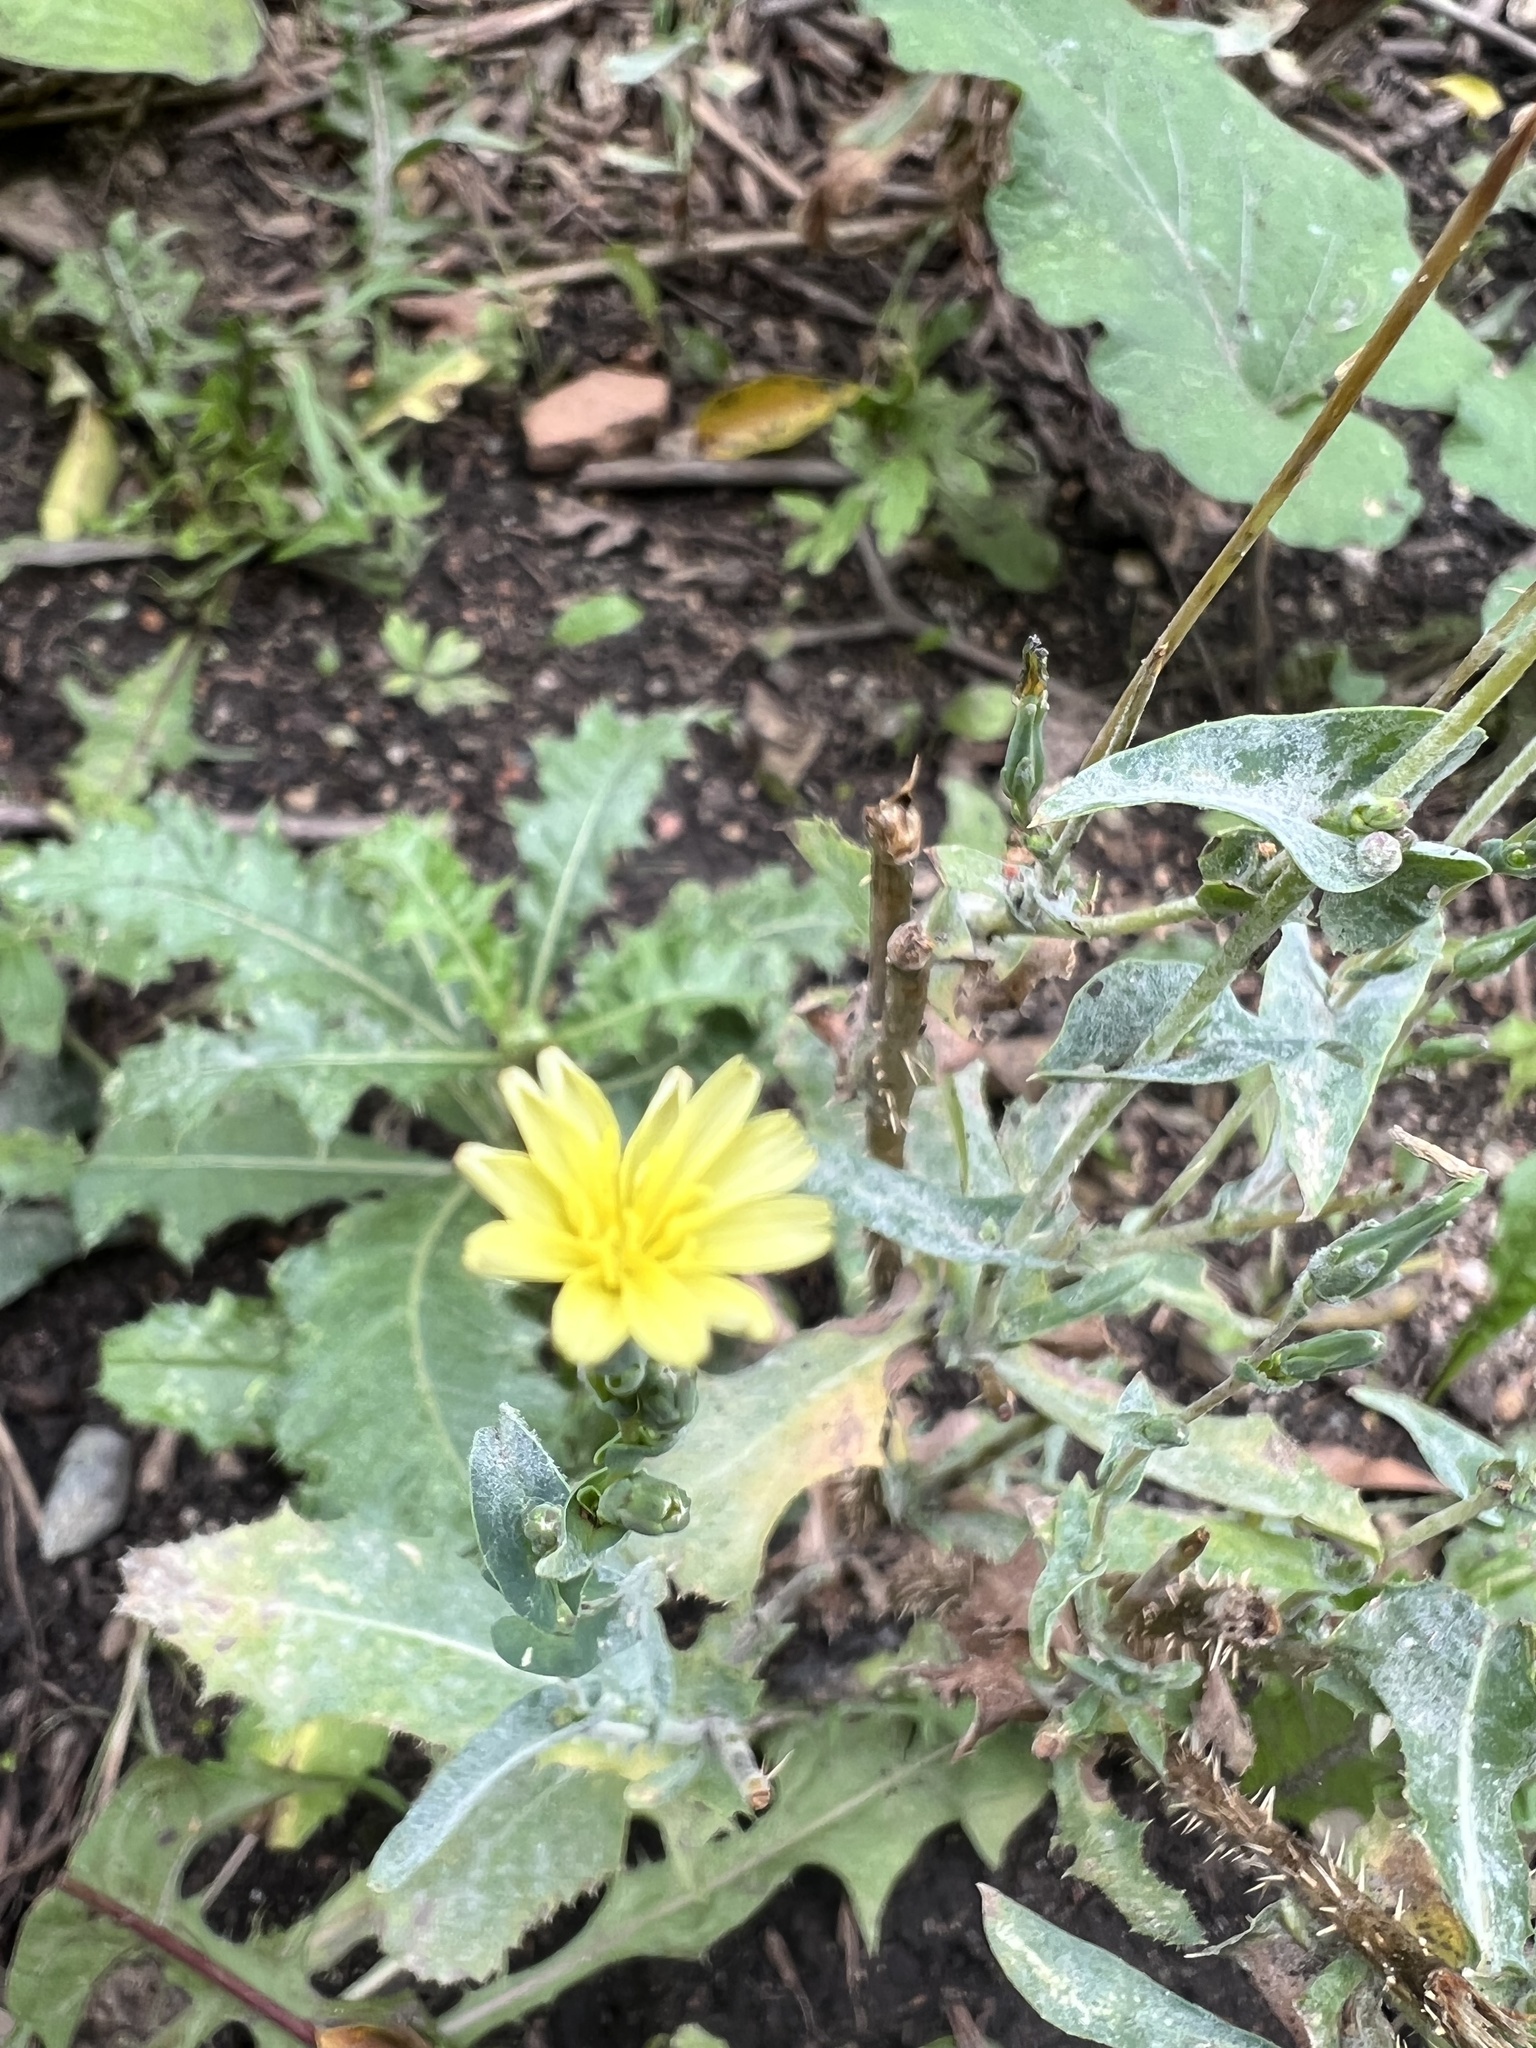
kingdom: Plantae
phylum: Tracheophyta
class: Magnoliopsida
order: Asterales
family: Asteraceae
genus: Lactuca
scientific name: Lactuca serriola
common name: Prickly lettuce
